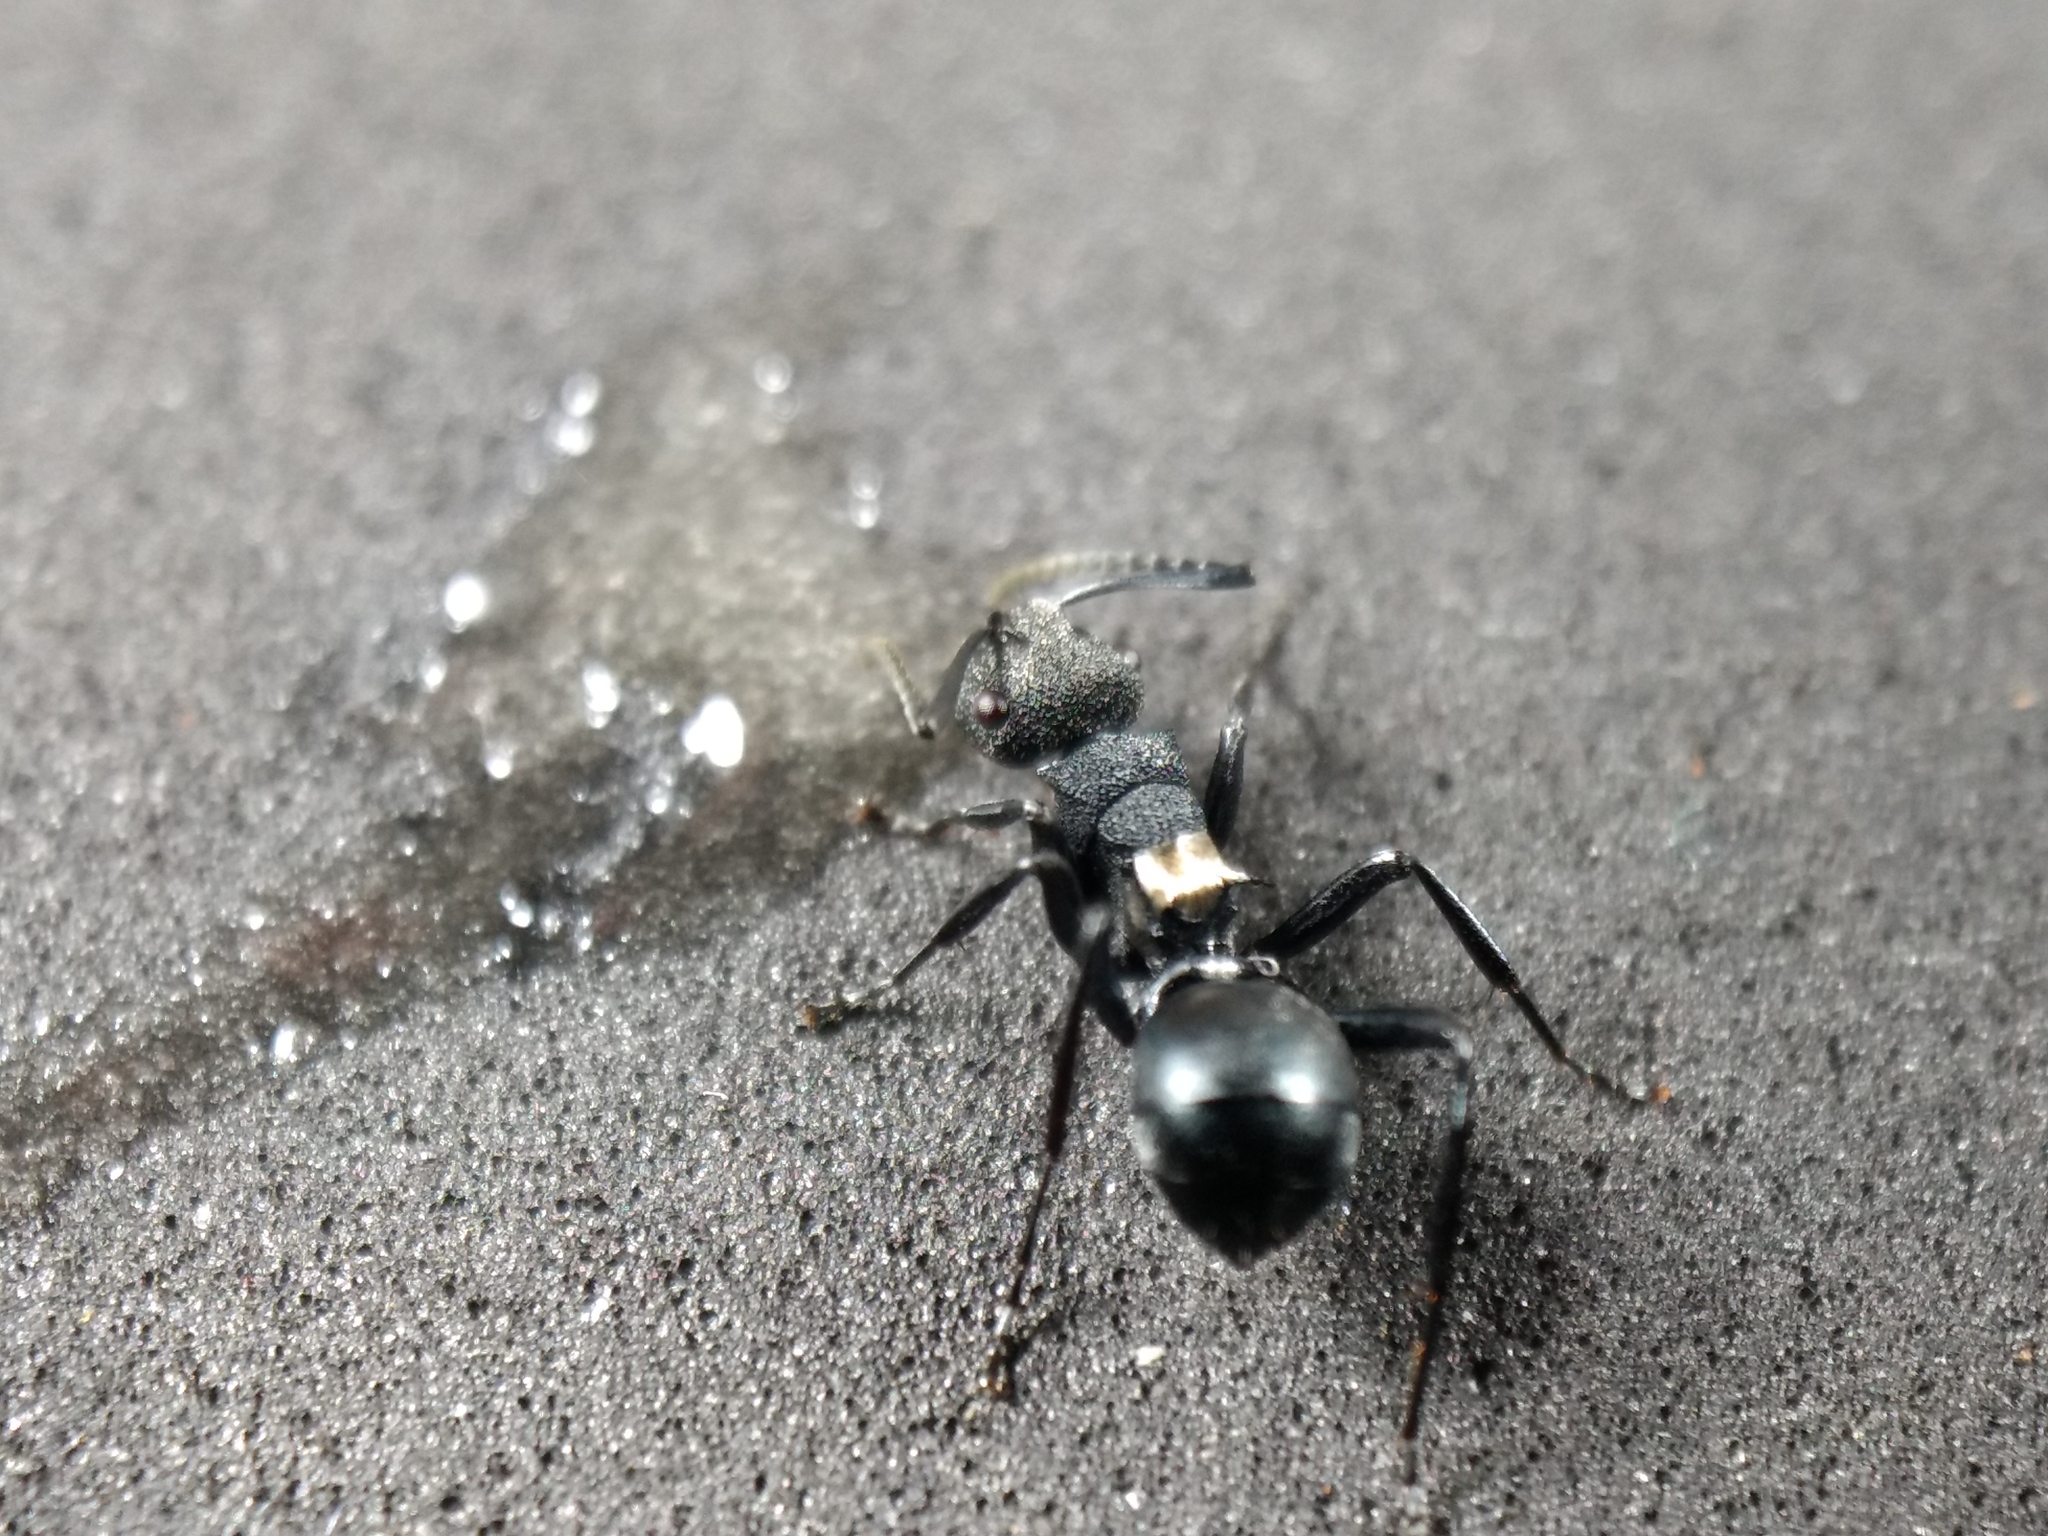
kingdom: Animalia
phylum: Arthropoda
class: Insecta
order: Hymenoptera
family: Formicidae
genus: Polyrhachis
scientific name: Polyrhachis machaon
